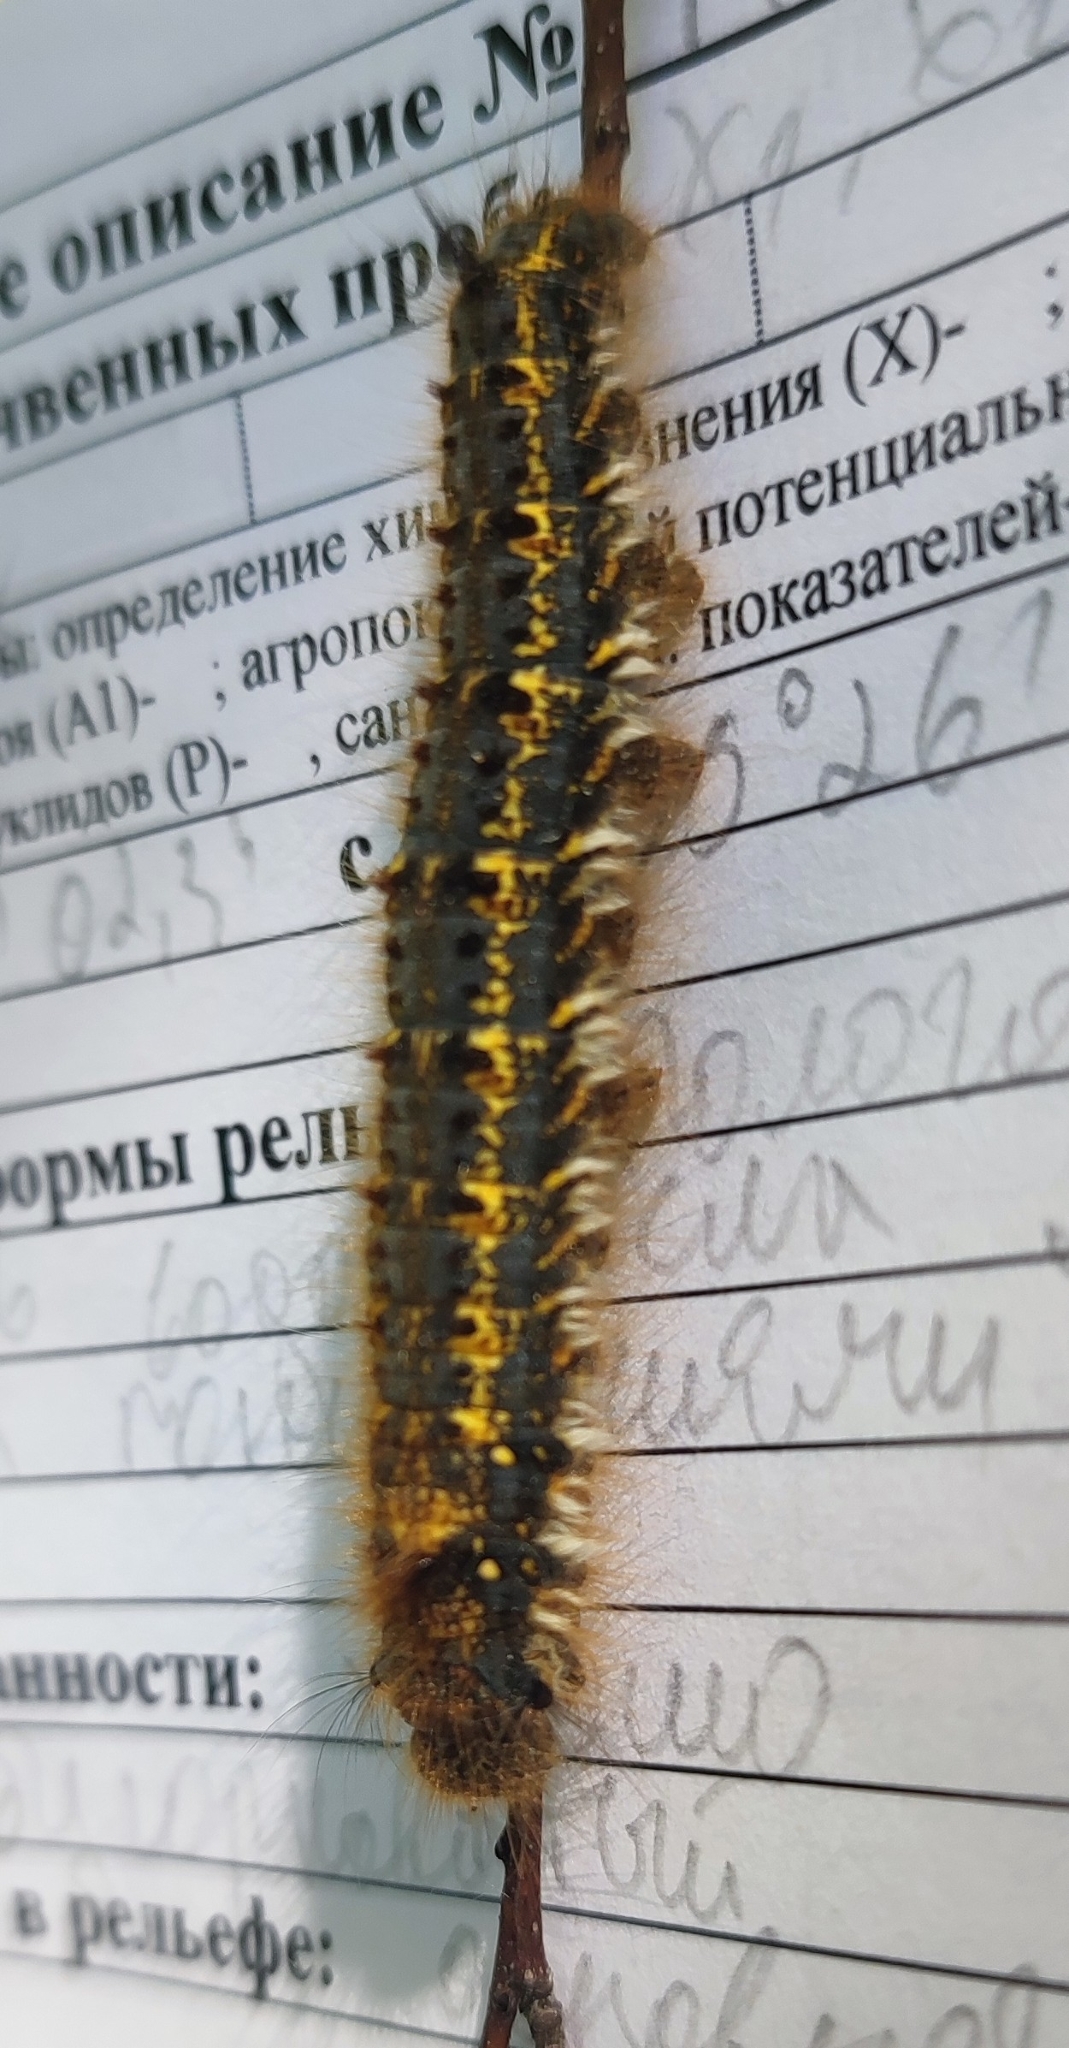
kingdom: Animalia
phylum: Arthropoda
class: Insecta
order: Lepidoptera
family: Lasiocampidae
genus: Euthrix
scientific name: Euthrix potatoria
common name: Drinker
